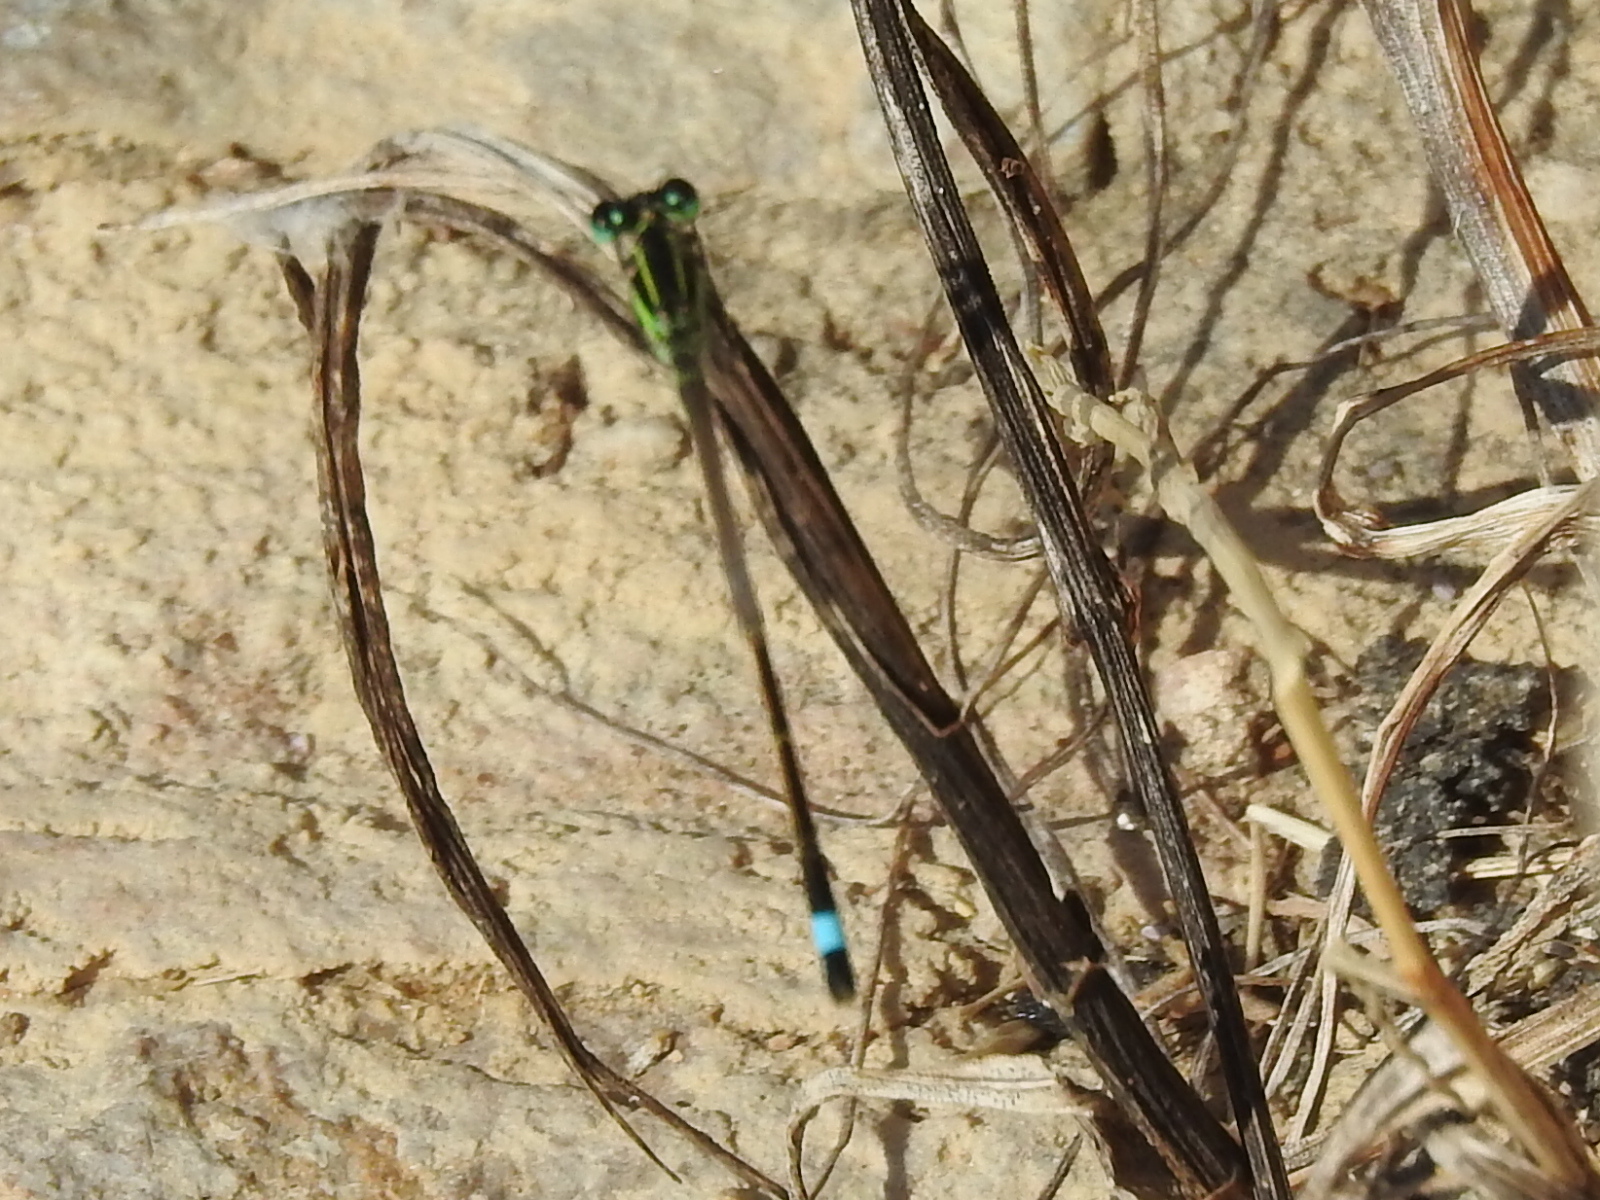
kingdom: Animalia
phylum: Arthropoda
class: Insecta
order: Odonata
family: Coenagrionidae
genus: Ischnura
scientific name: Ischnura ramburii
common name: Rambur's forktail
